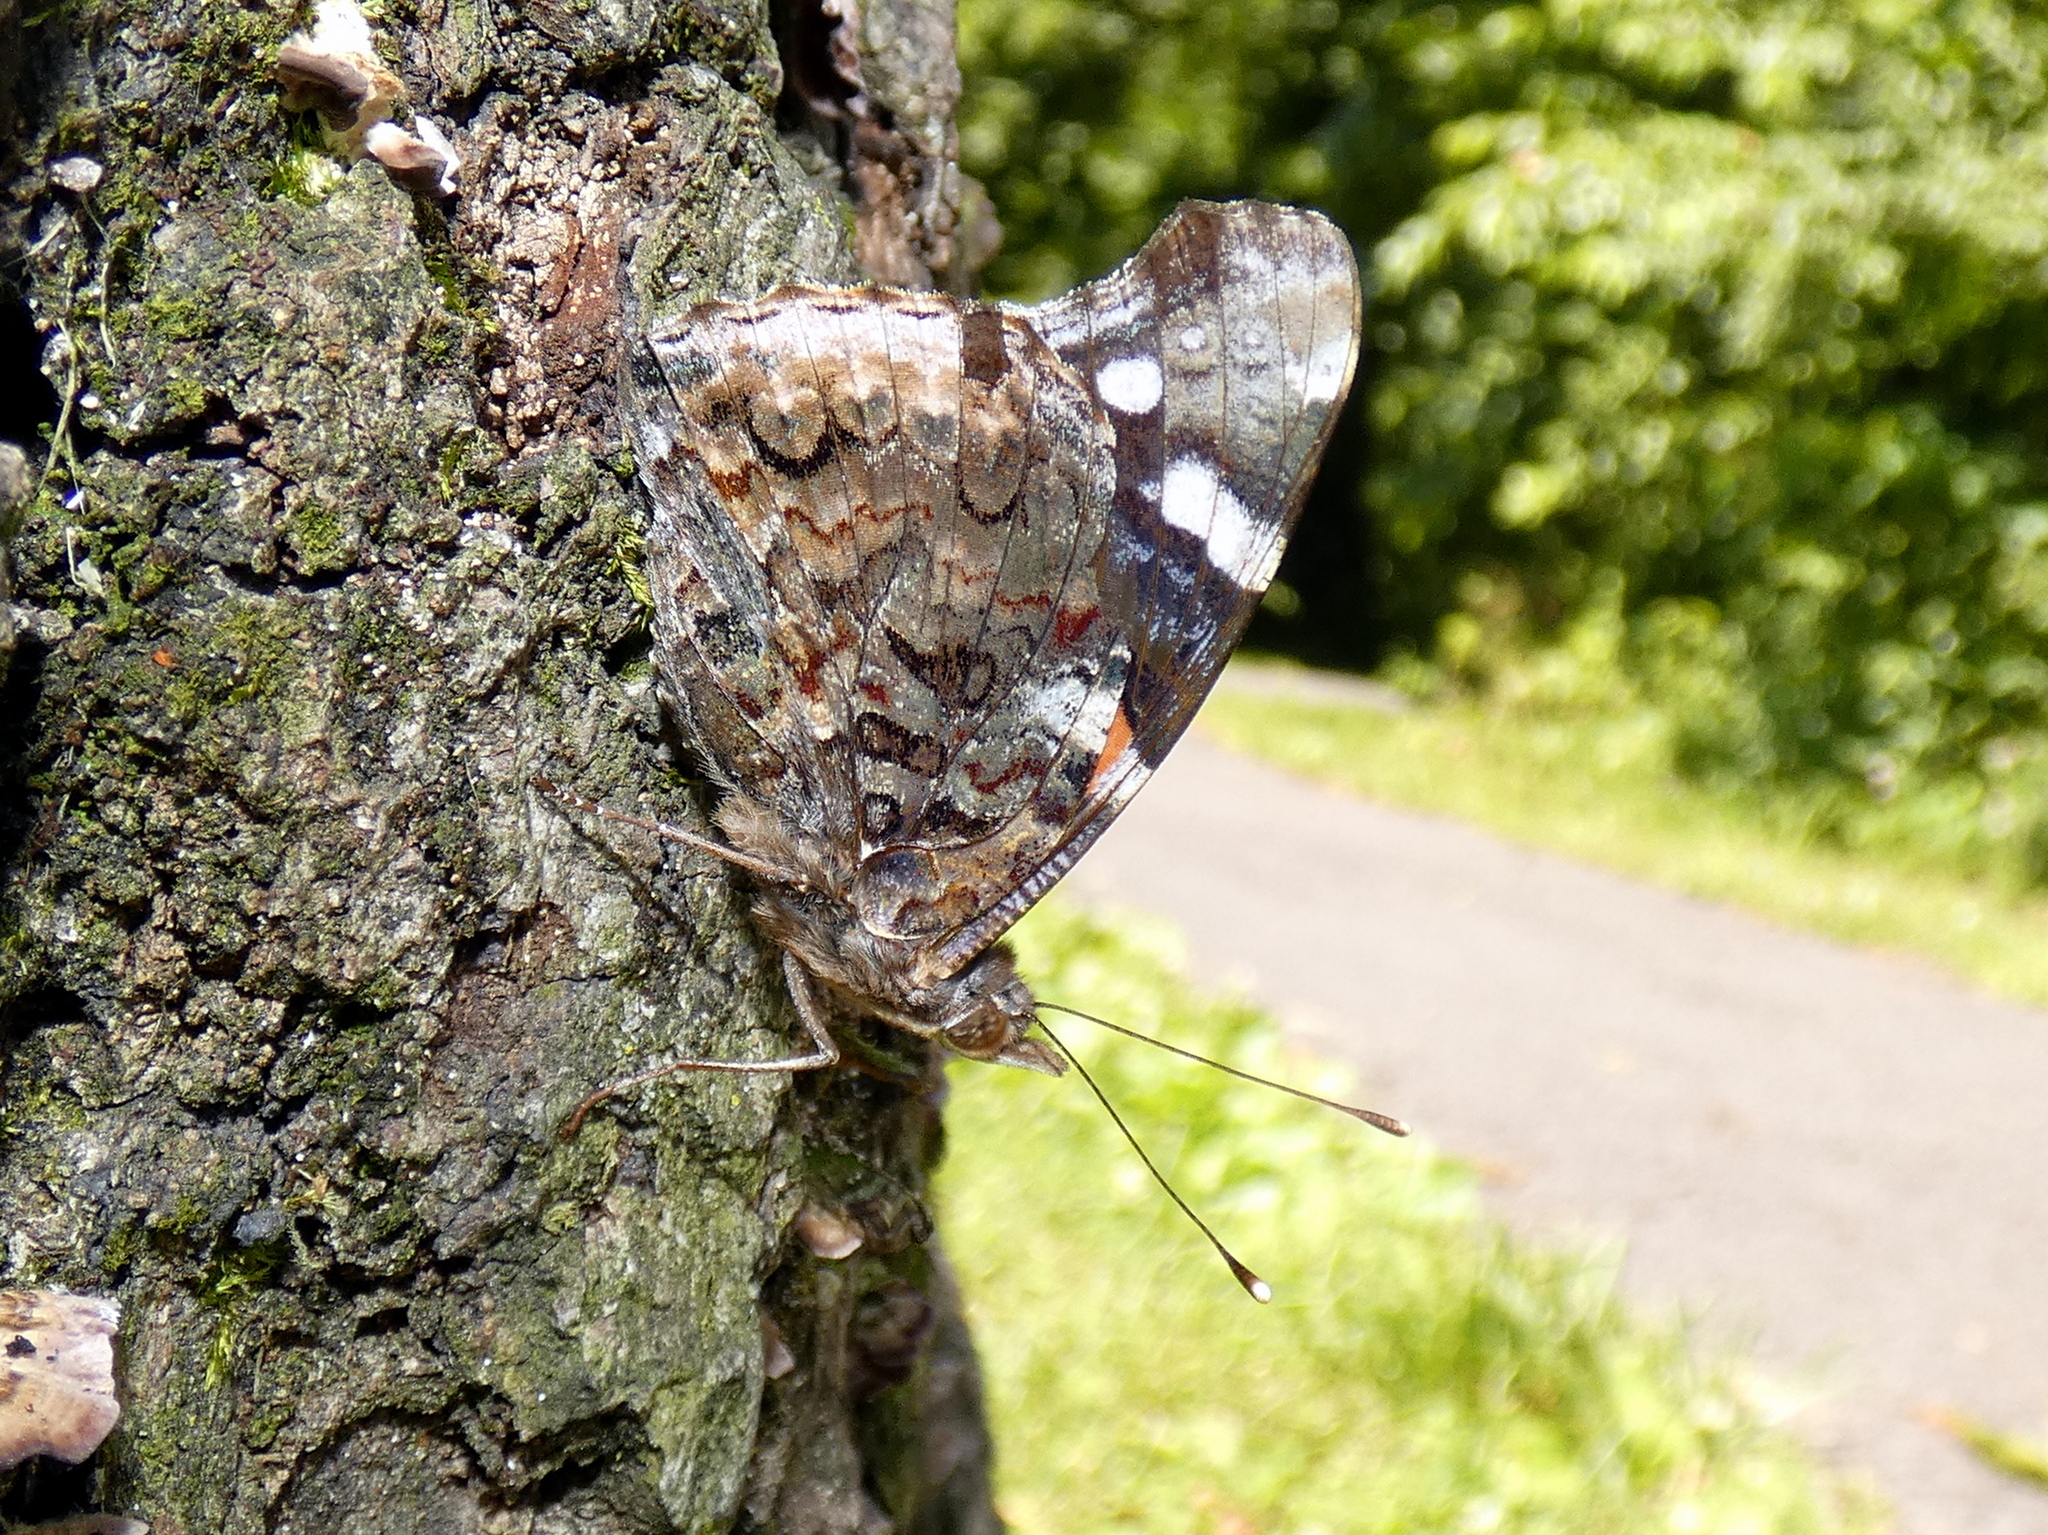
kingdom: Animalia
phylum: Arthropoda
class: Insecta
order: Lepidoptera
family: Nymphalidae
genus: Vanessa
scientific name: Vanessa atalanta
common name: Red admiral
